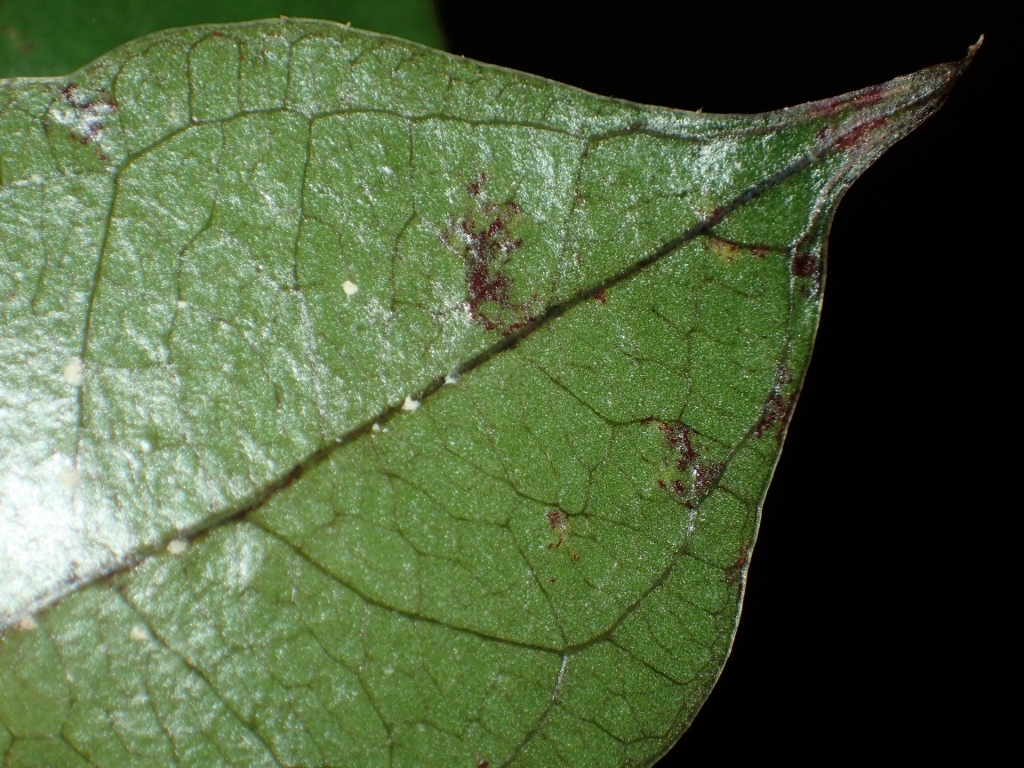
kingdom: Plantae
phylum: Tracheophyta
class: Liliopsida
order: Liliales
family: Ripogonaceae
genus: Ripogonum
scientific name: Ripogonum scandens
